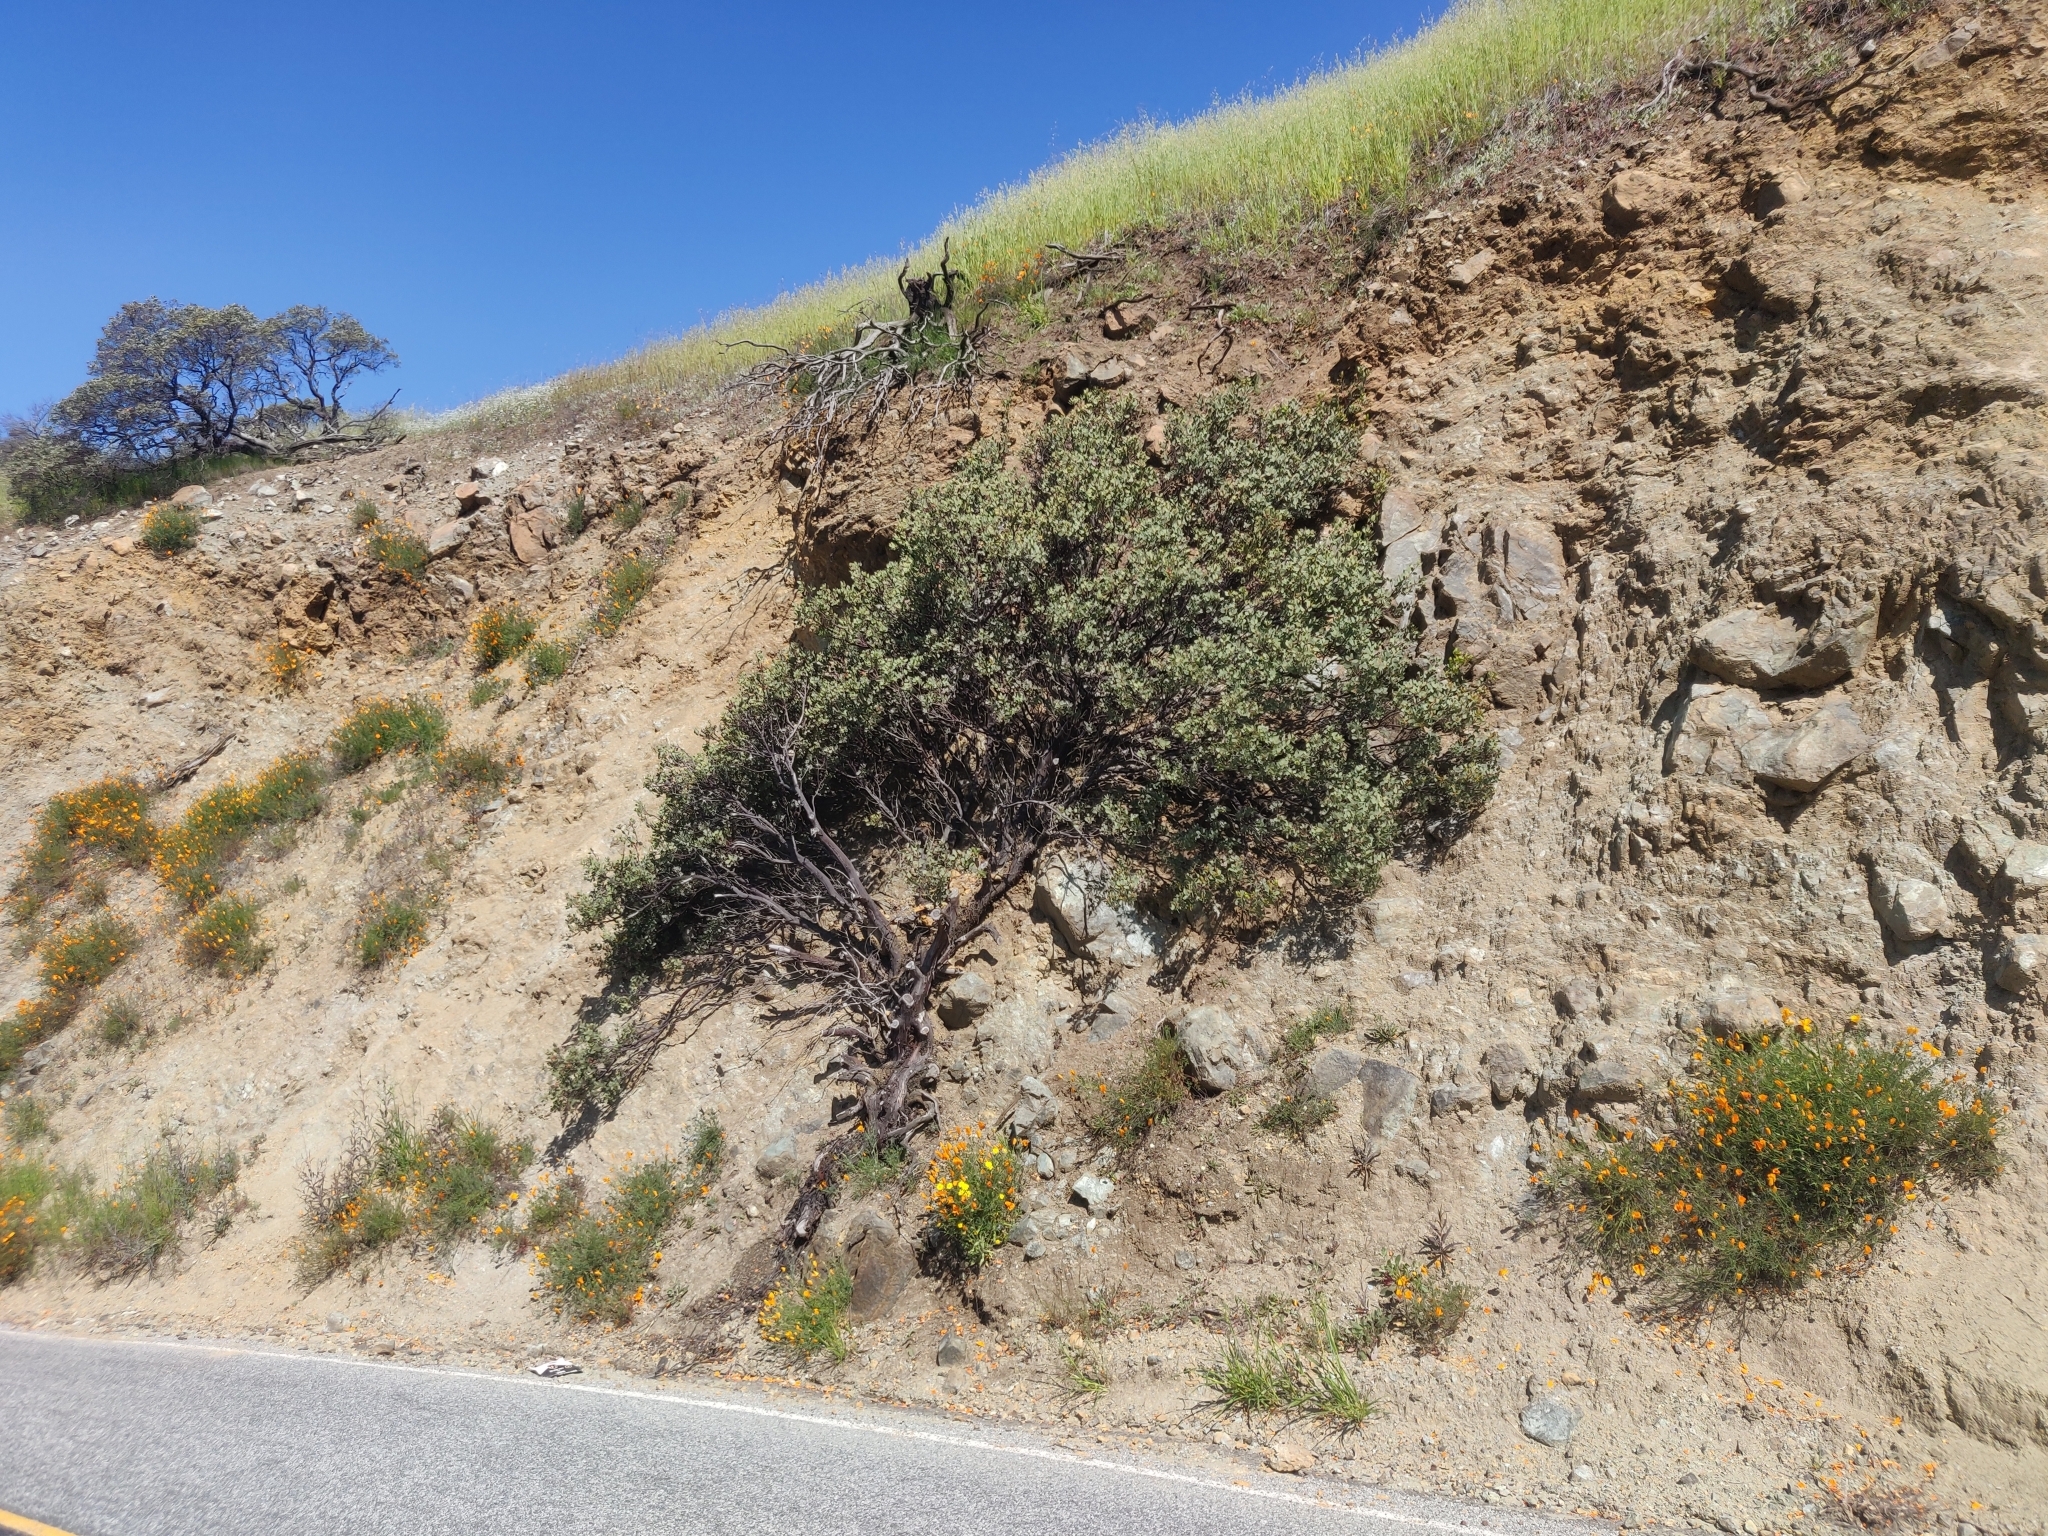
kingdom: Plantae
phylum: Tracheophyta
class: Magnoliopsida
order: Ericales
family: Ericaceae
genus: Arctostaphylos
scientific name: Arctostaphylos glauca
